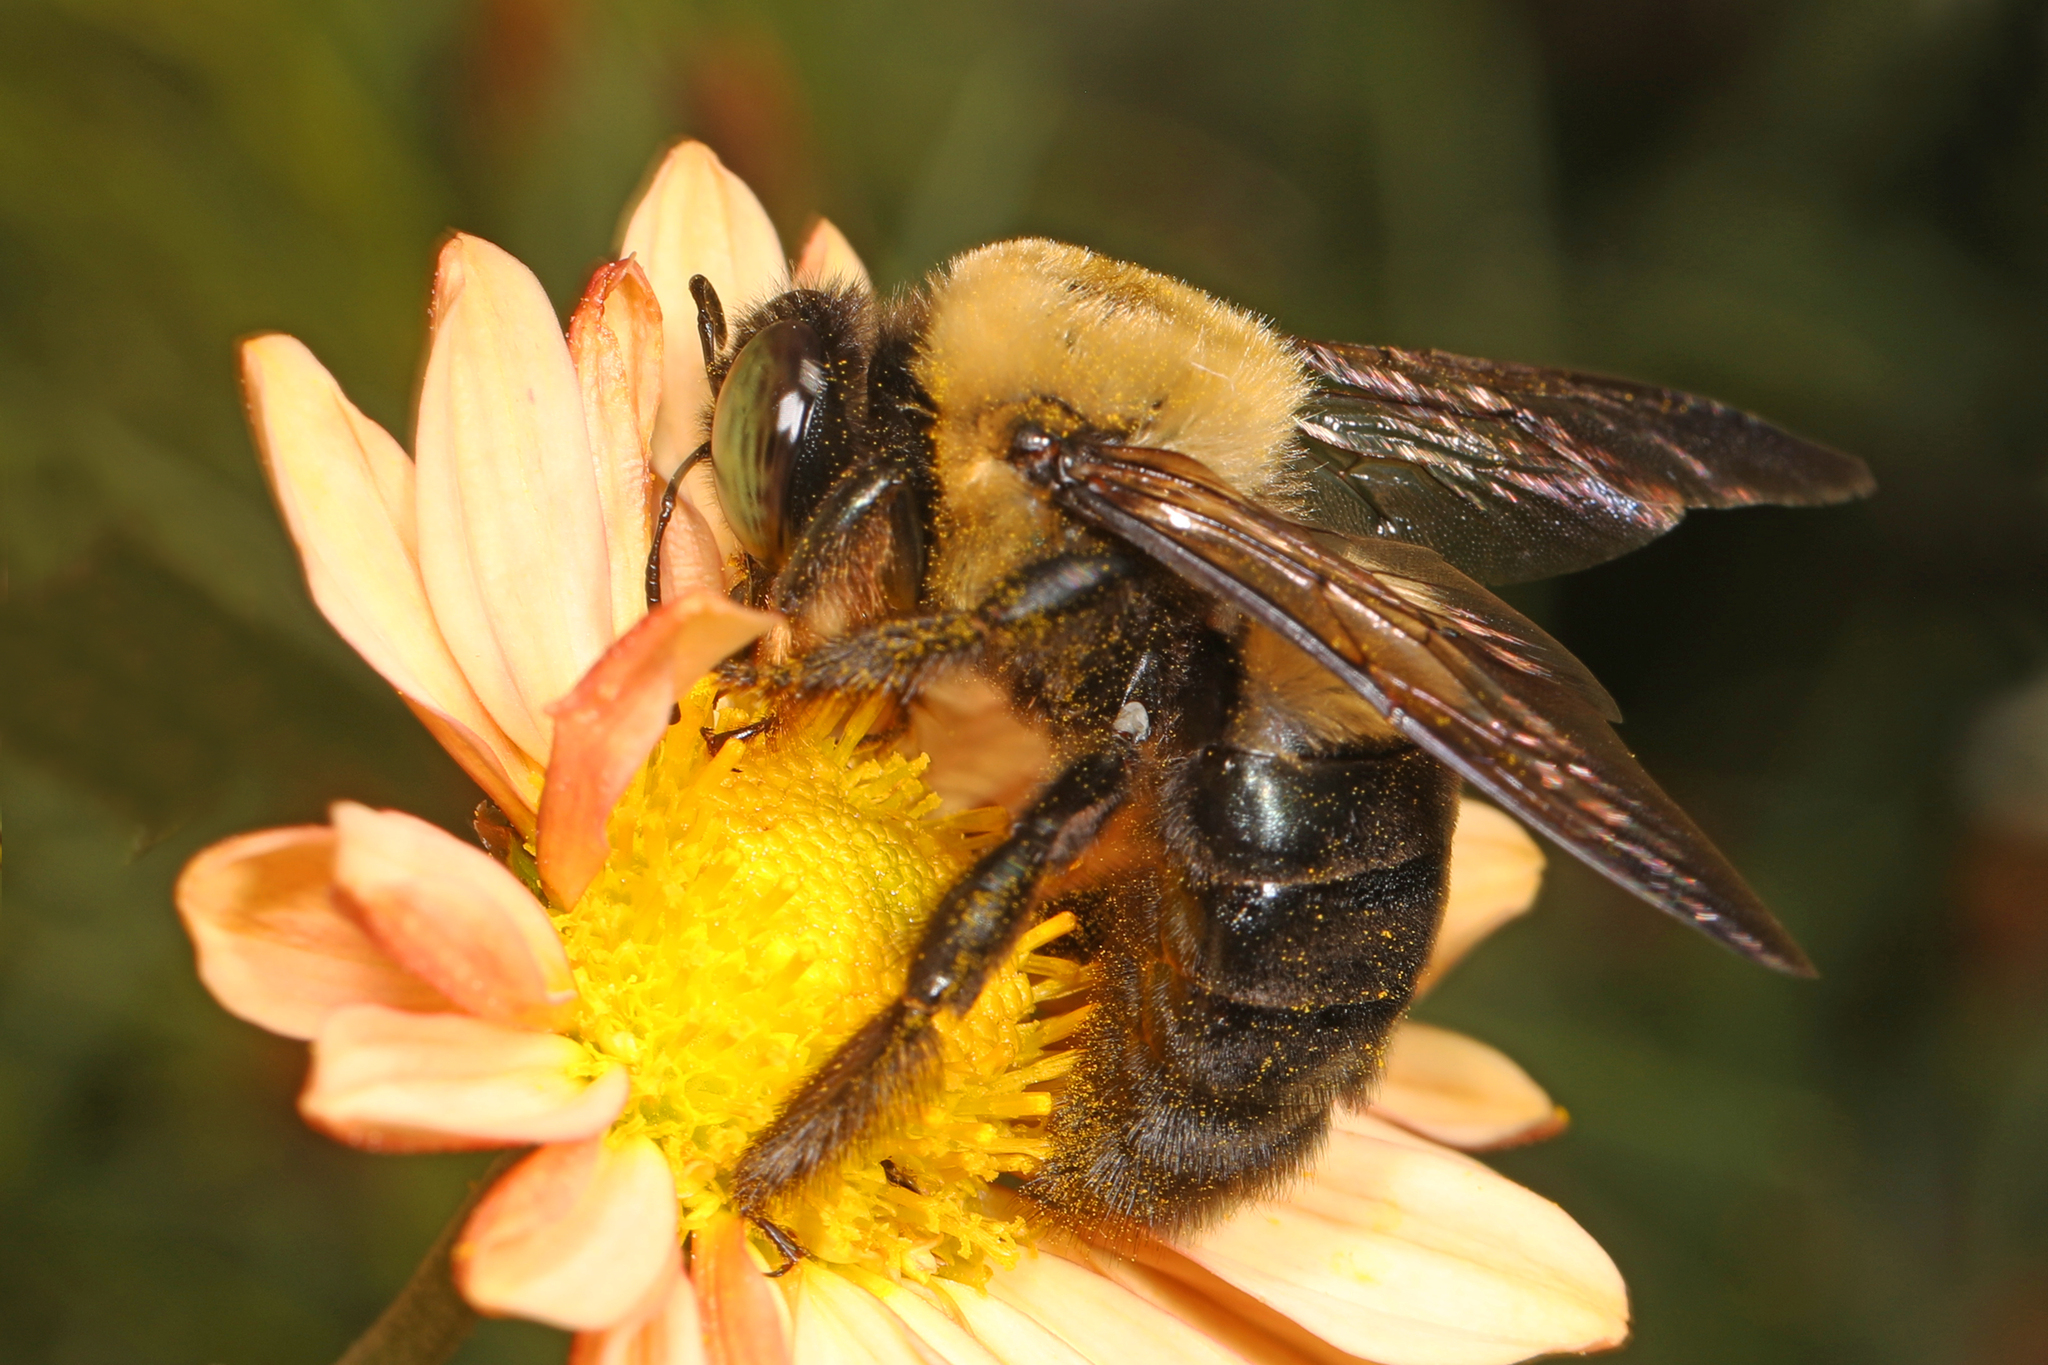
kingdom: Animalia
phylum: Arthropoda
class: Insecta
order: Hymenoptera
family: Apidae
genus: Xylocopa
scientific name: Xylocopa virginica
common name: Carpenter bee
